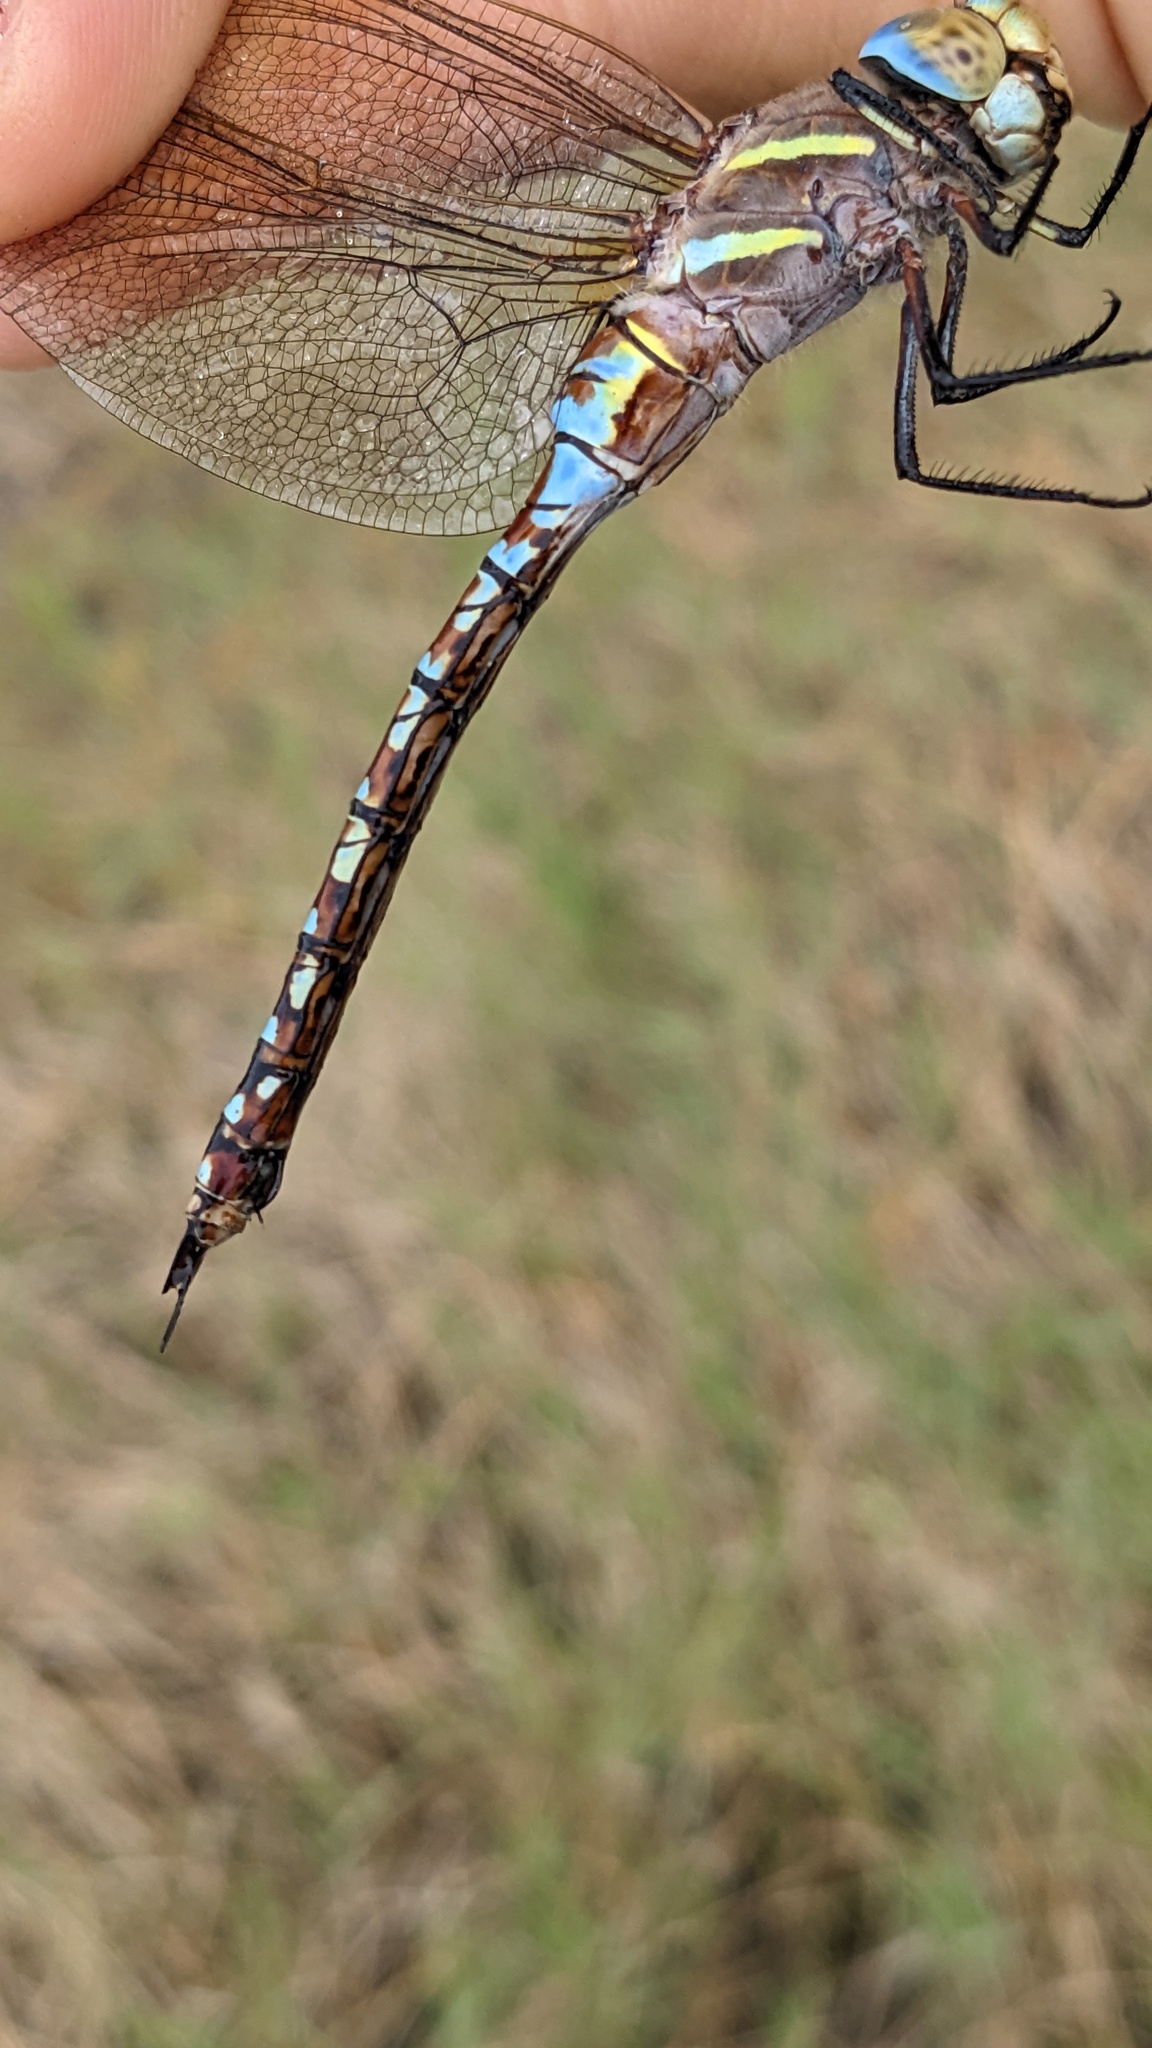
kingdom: Animalia
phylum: Arthropoda
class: Insecta
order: Odonata
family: Aeshnidae
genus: Rhionaeschna
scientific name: Rhionaeschna multicolor
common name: Blue-eyed darner
